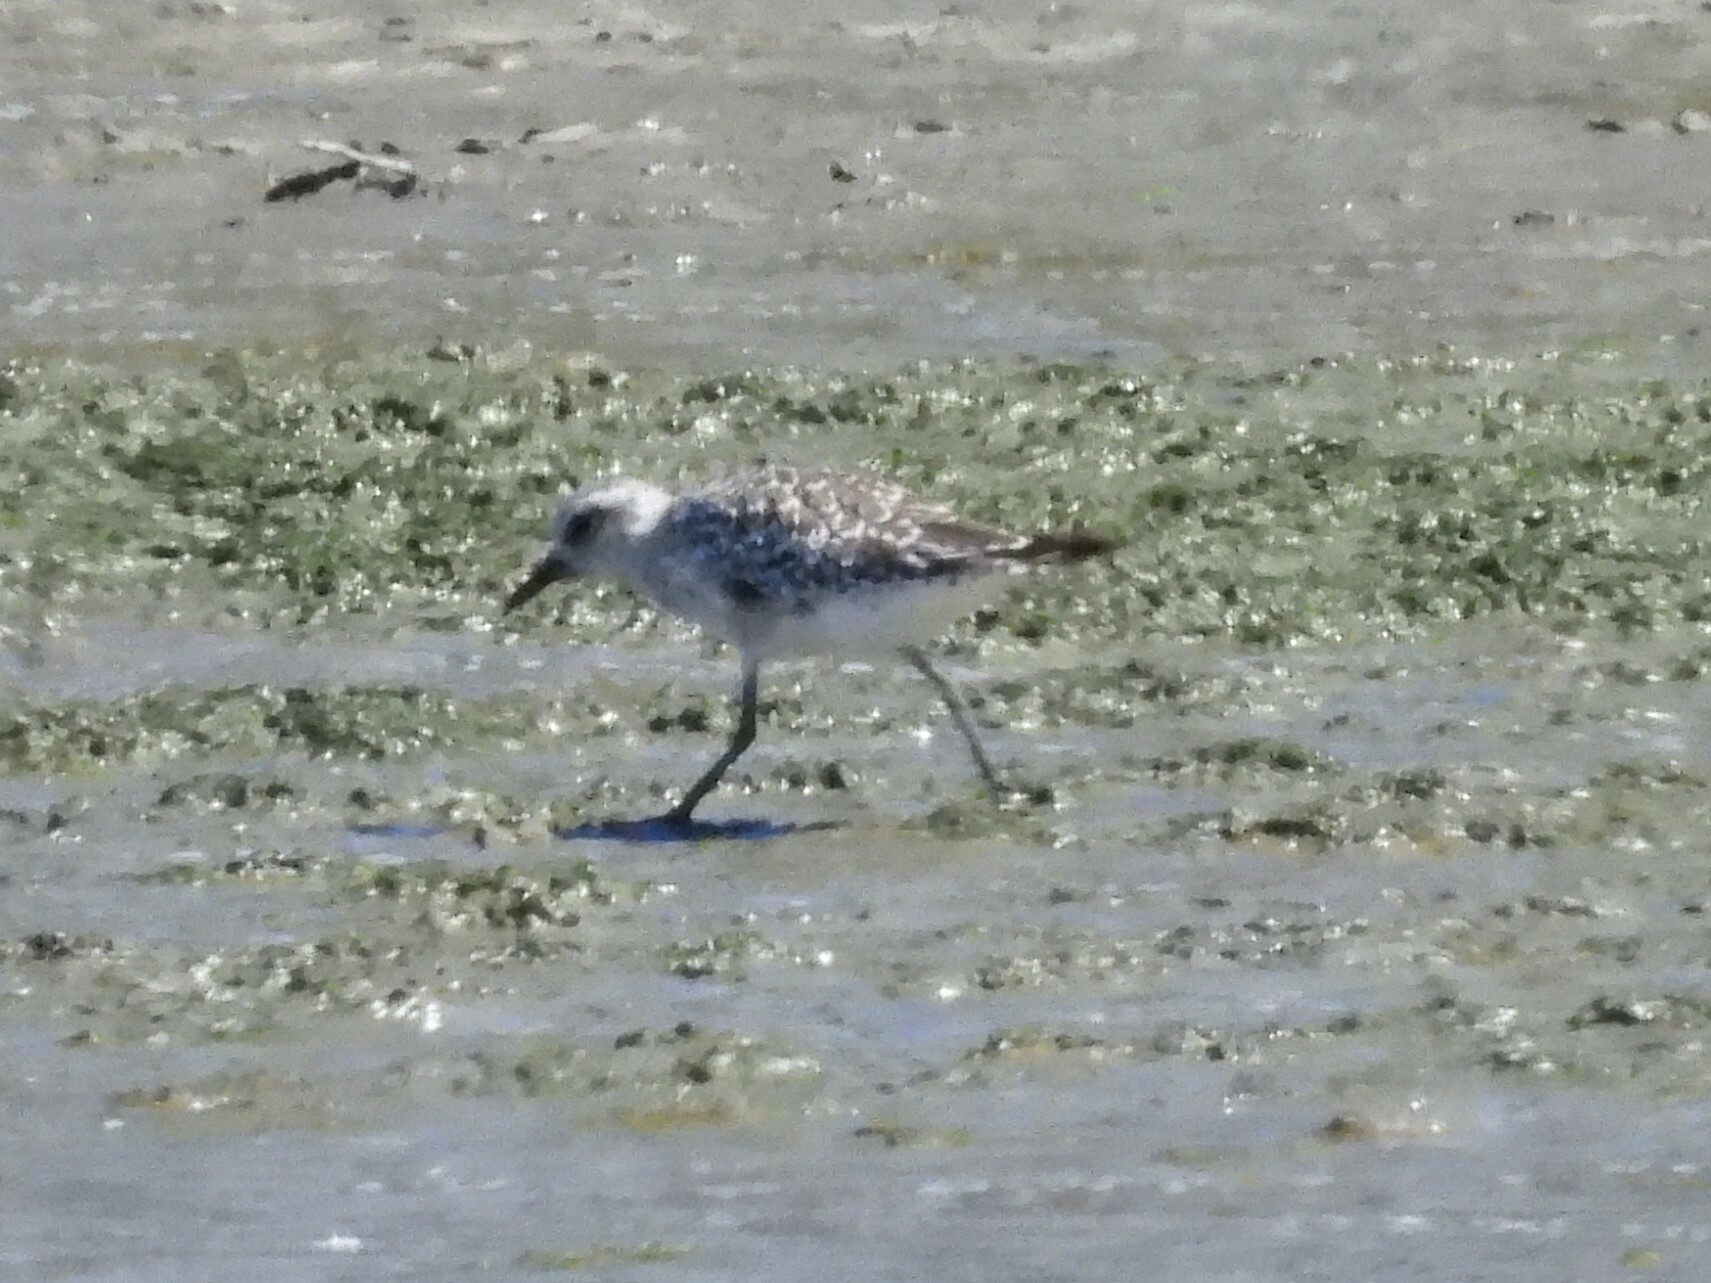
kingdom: Animalia
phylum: Chordata
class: Aves
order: Charadriiformes
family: Charadriidae
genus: Pluvialis
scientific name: Pluvialis squatarola
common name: Grey plover
